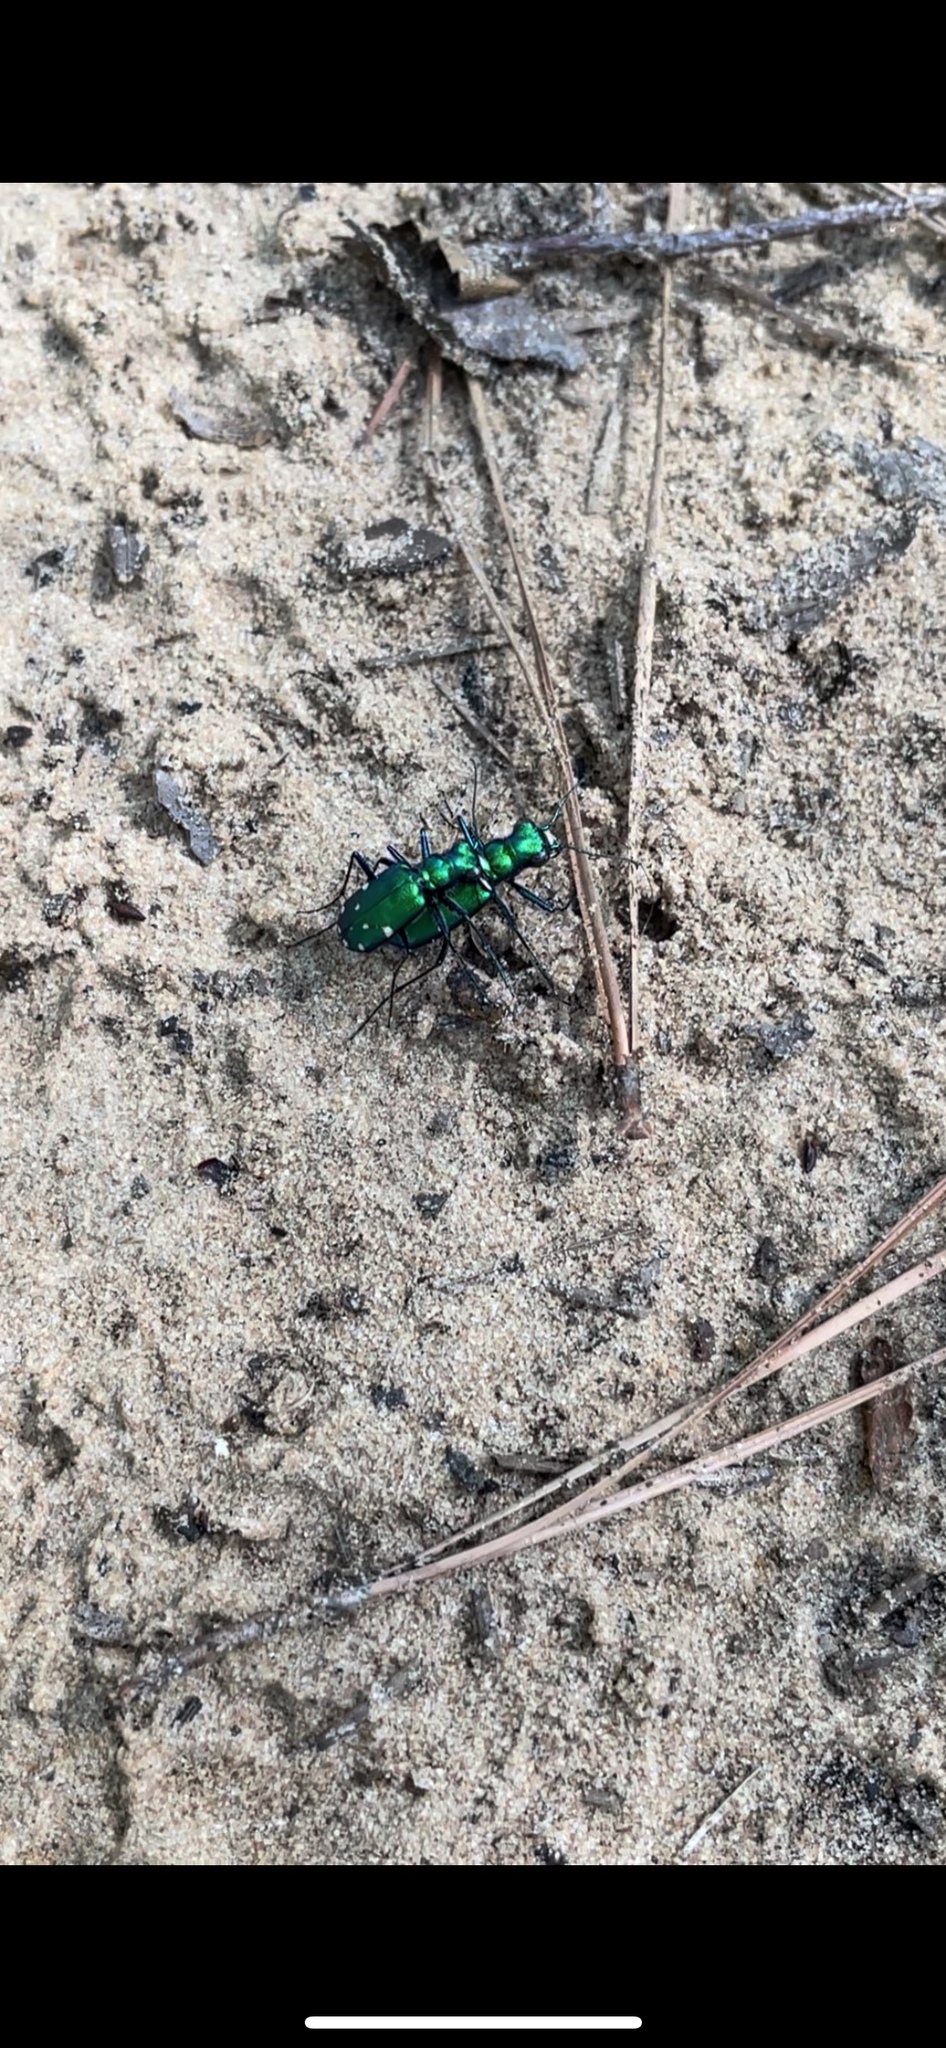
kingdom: Animalia
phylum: Arthropoda
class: Insecta
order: Coleoptera
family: Carabidae
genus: Cicindela
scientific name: Cicindela sexguttata
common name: Six-spotted tiger beetle
